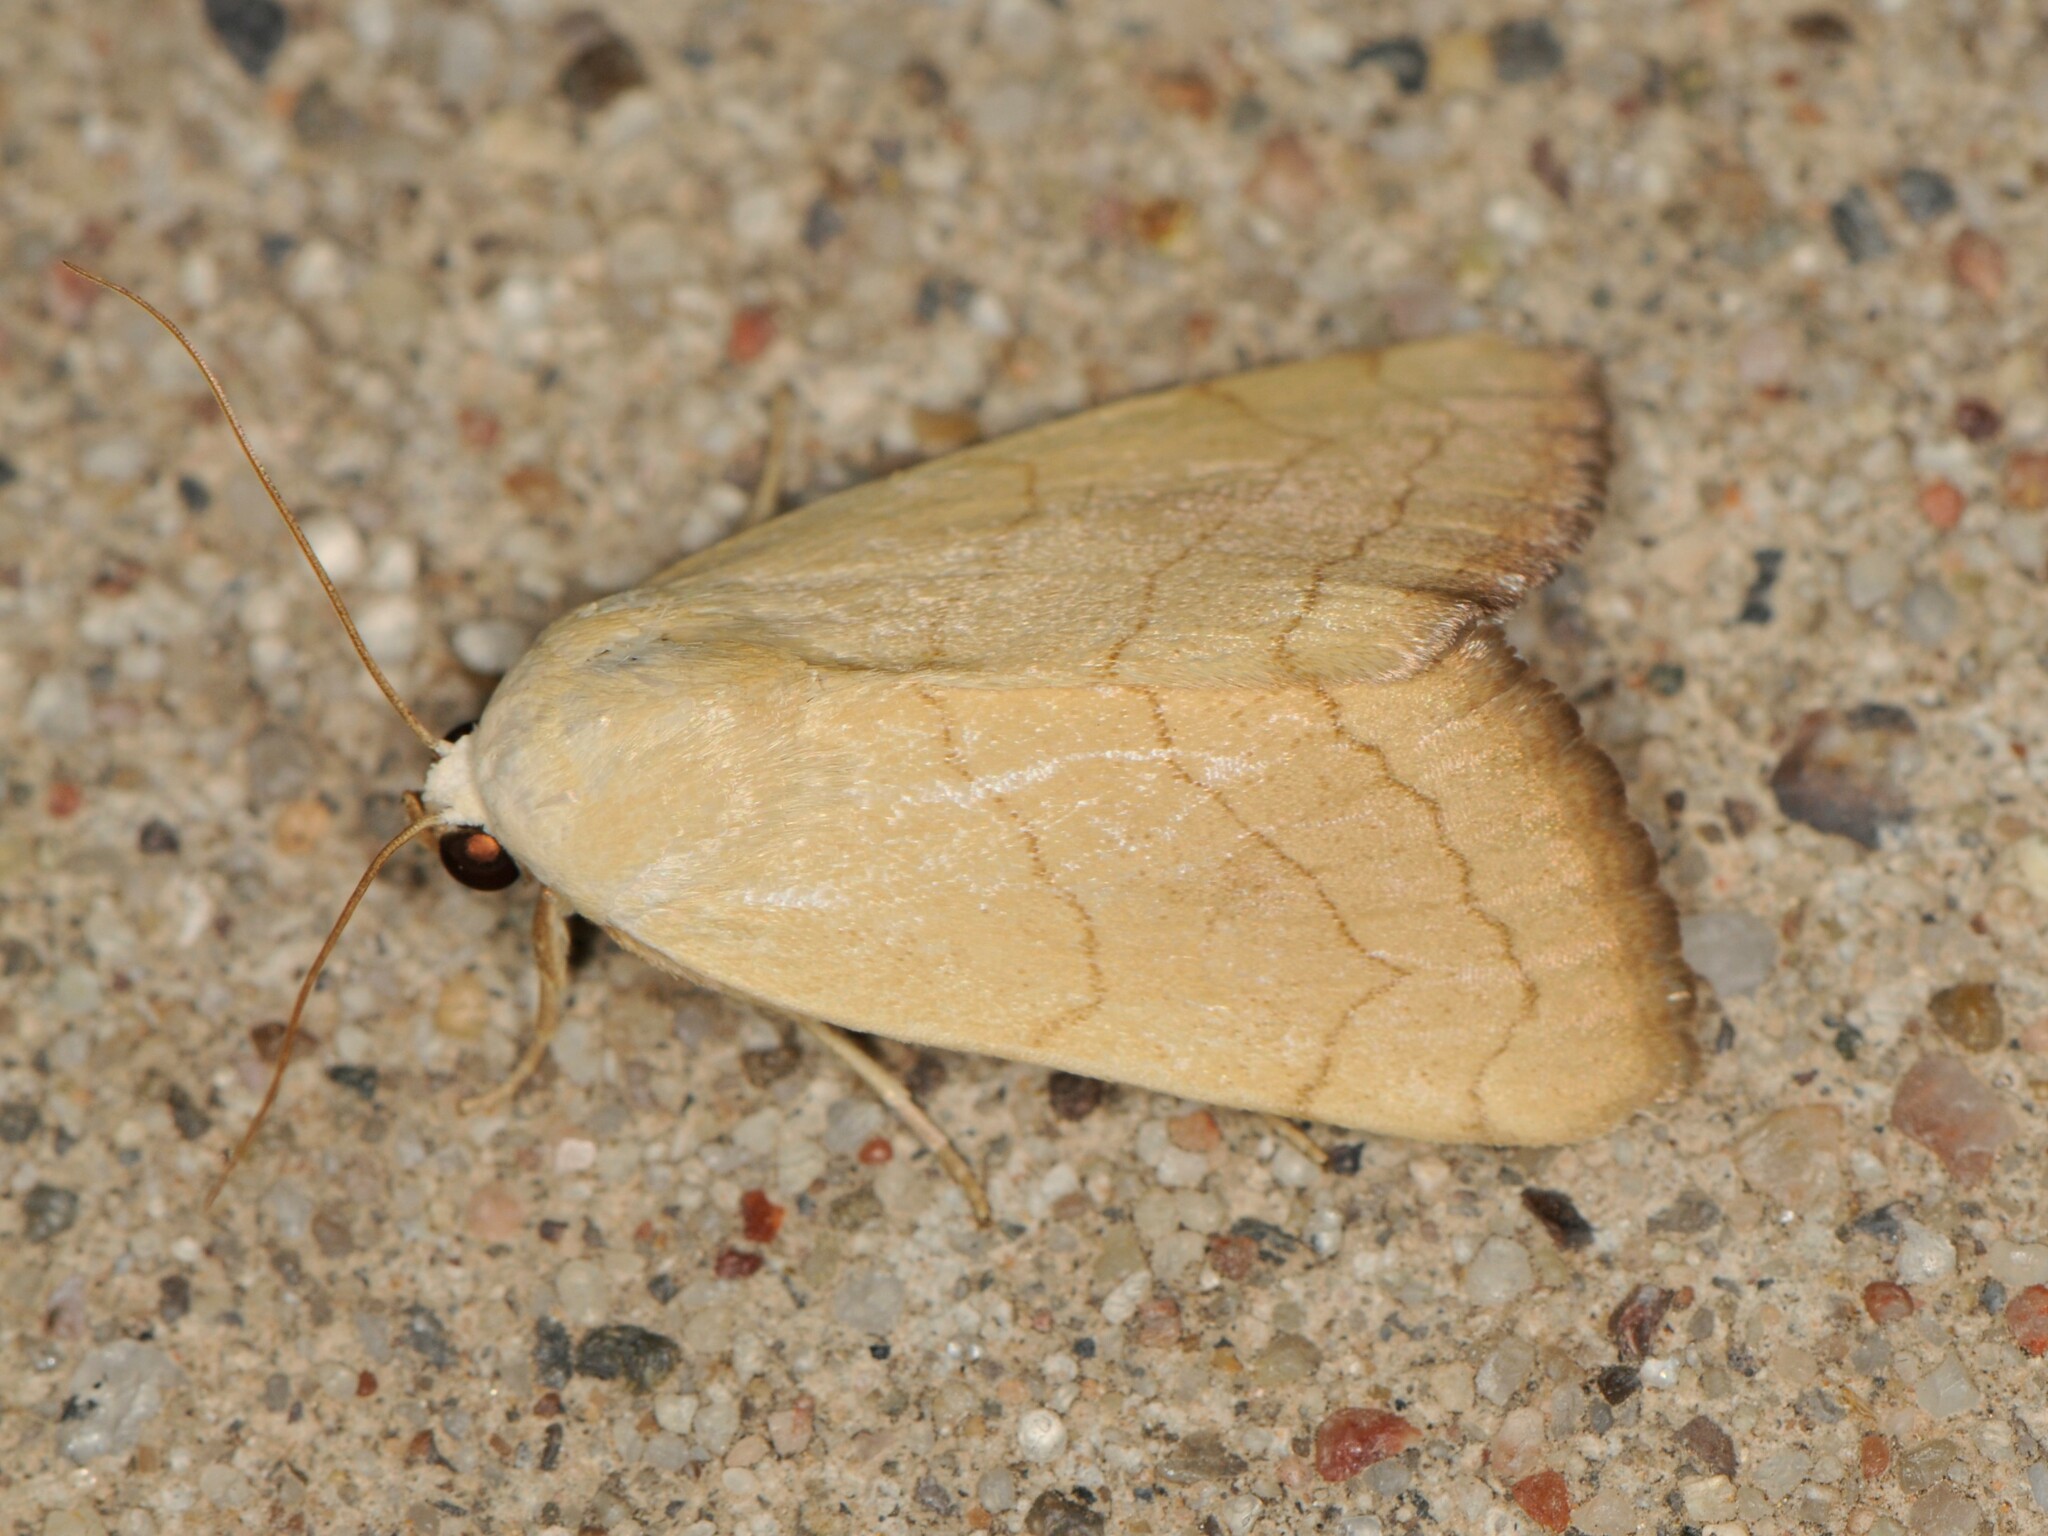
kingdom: Animalia
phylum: Arthropoda
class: Insecta
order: Lepidoptera
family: Noctuidae
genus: Bagisara
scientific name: Bagisara buxea
